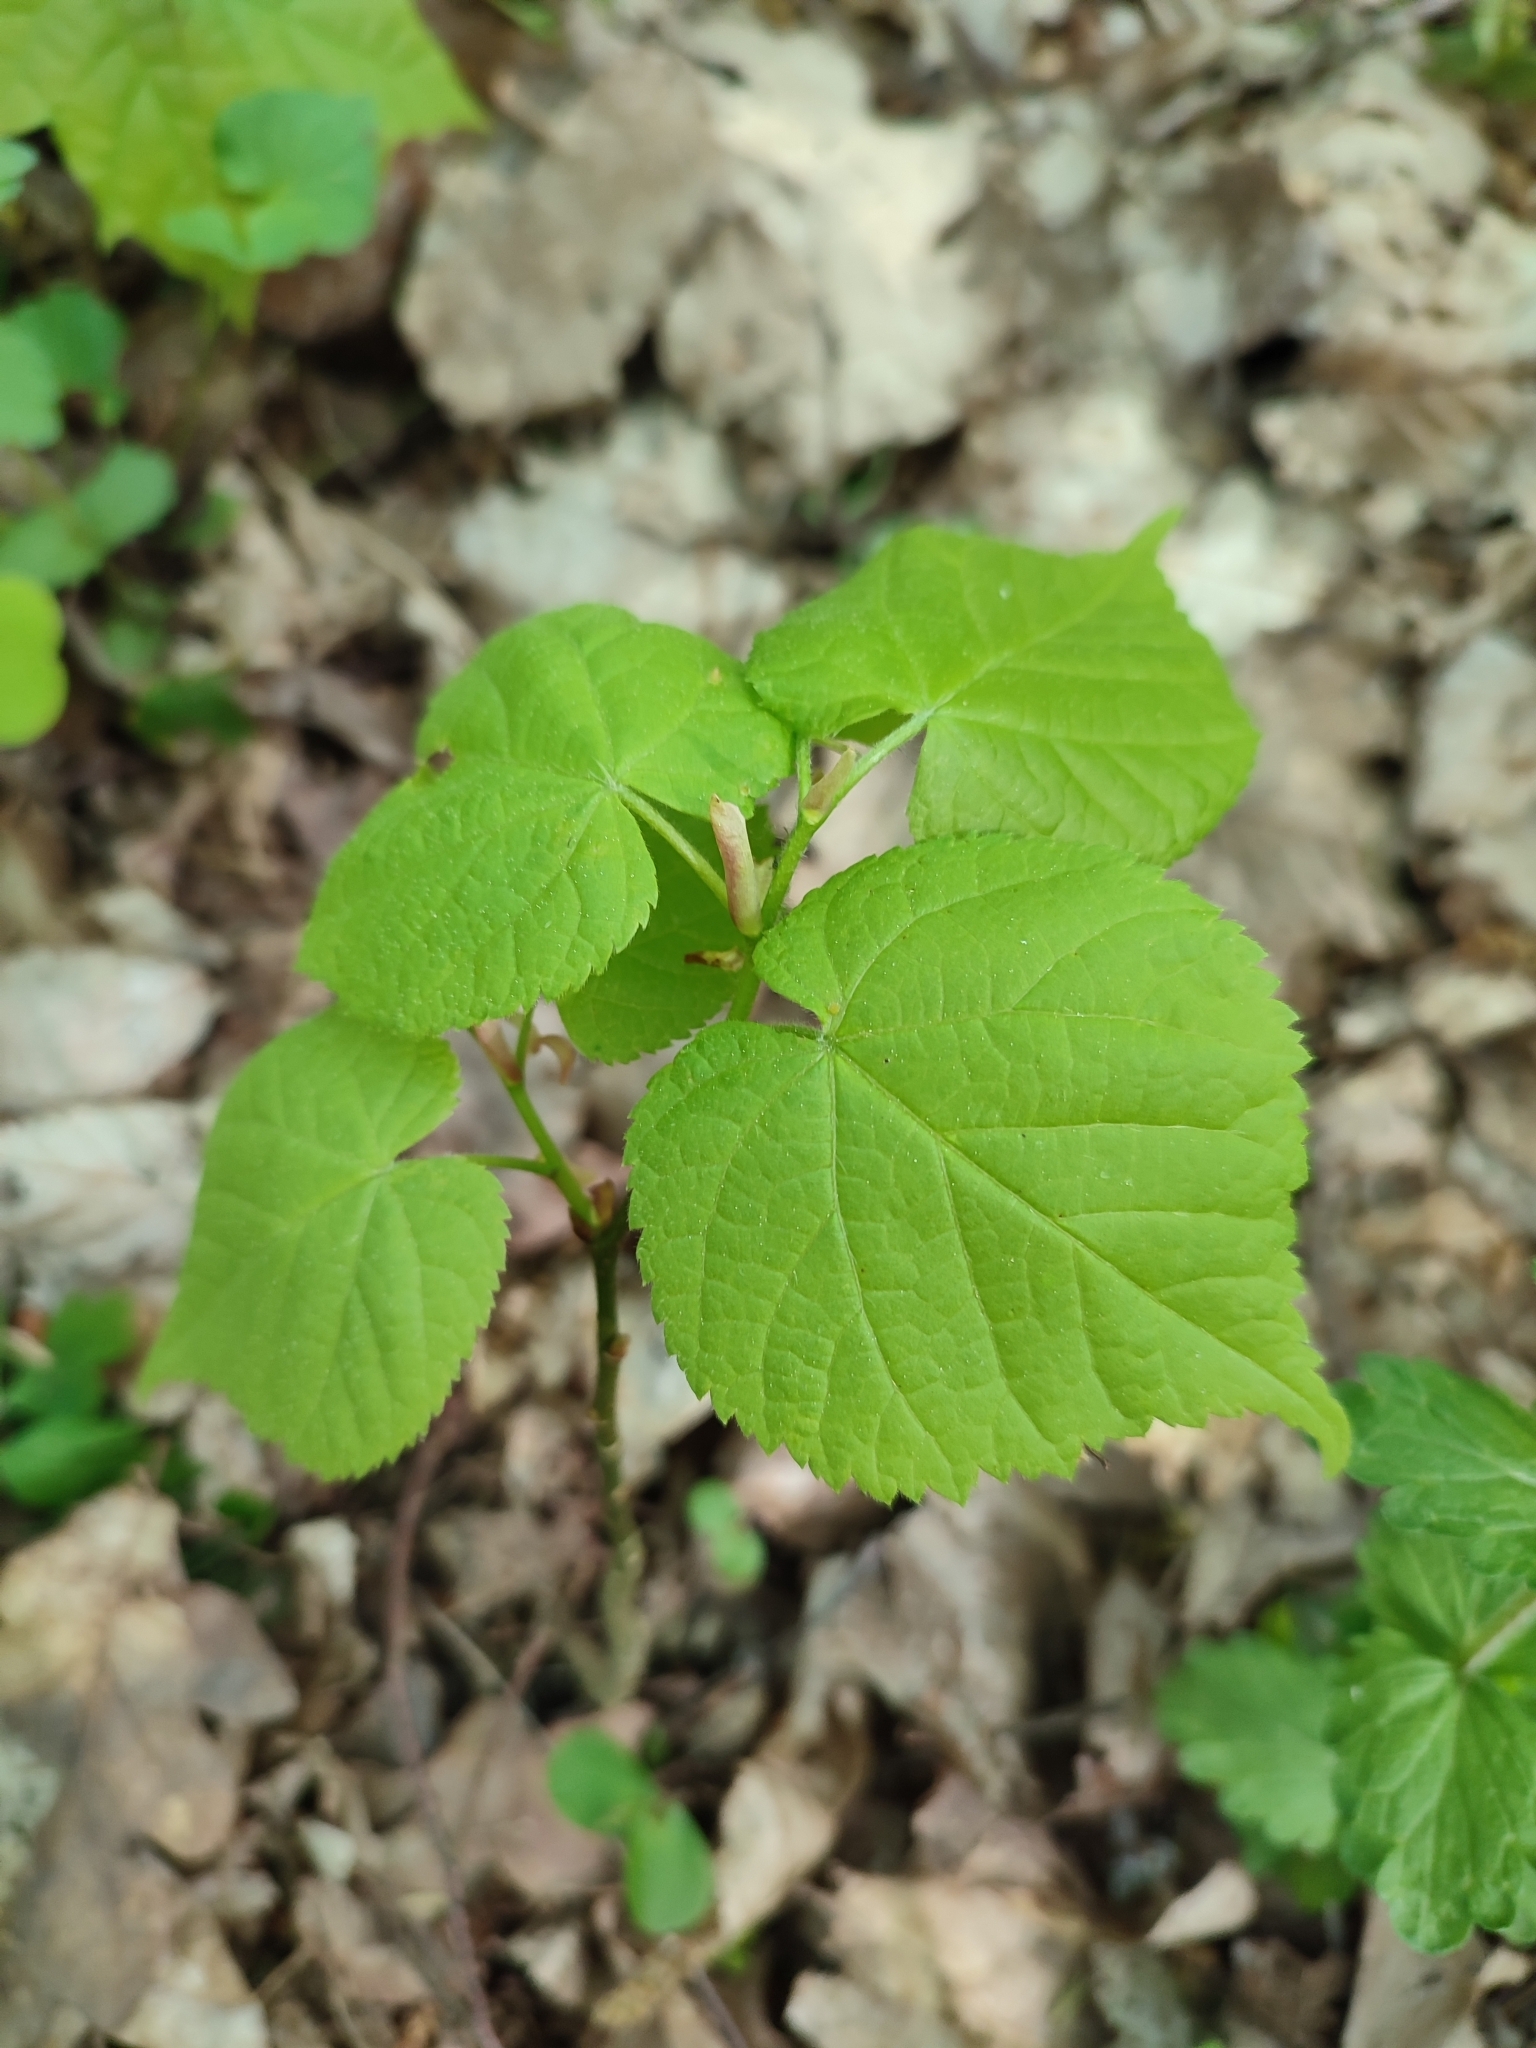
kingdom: Plantae
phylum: Tracheophyta
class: Magnoliopsida
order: Malvales
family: Malvaceae
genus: Tilia
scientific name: Tilia cordata
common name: Small-leaved lime
